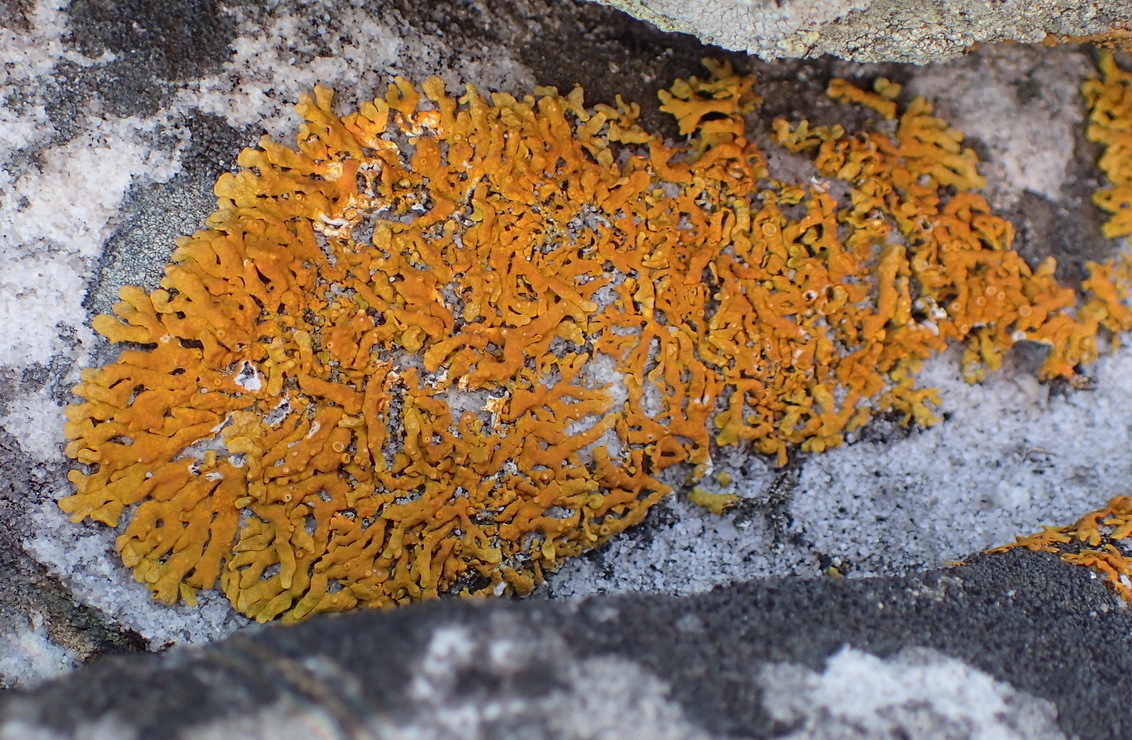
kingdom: Fungi
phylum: Ascomycota
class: Lecanoromycetes
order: Teloschistales
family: Teloschistaceae
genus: Dufourea
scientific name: Dufourea capensis
